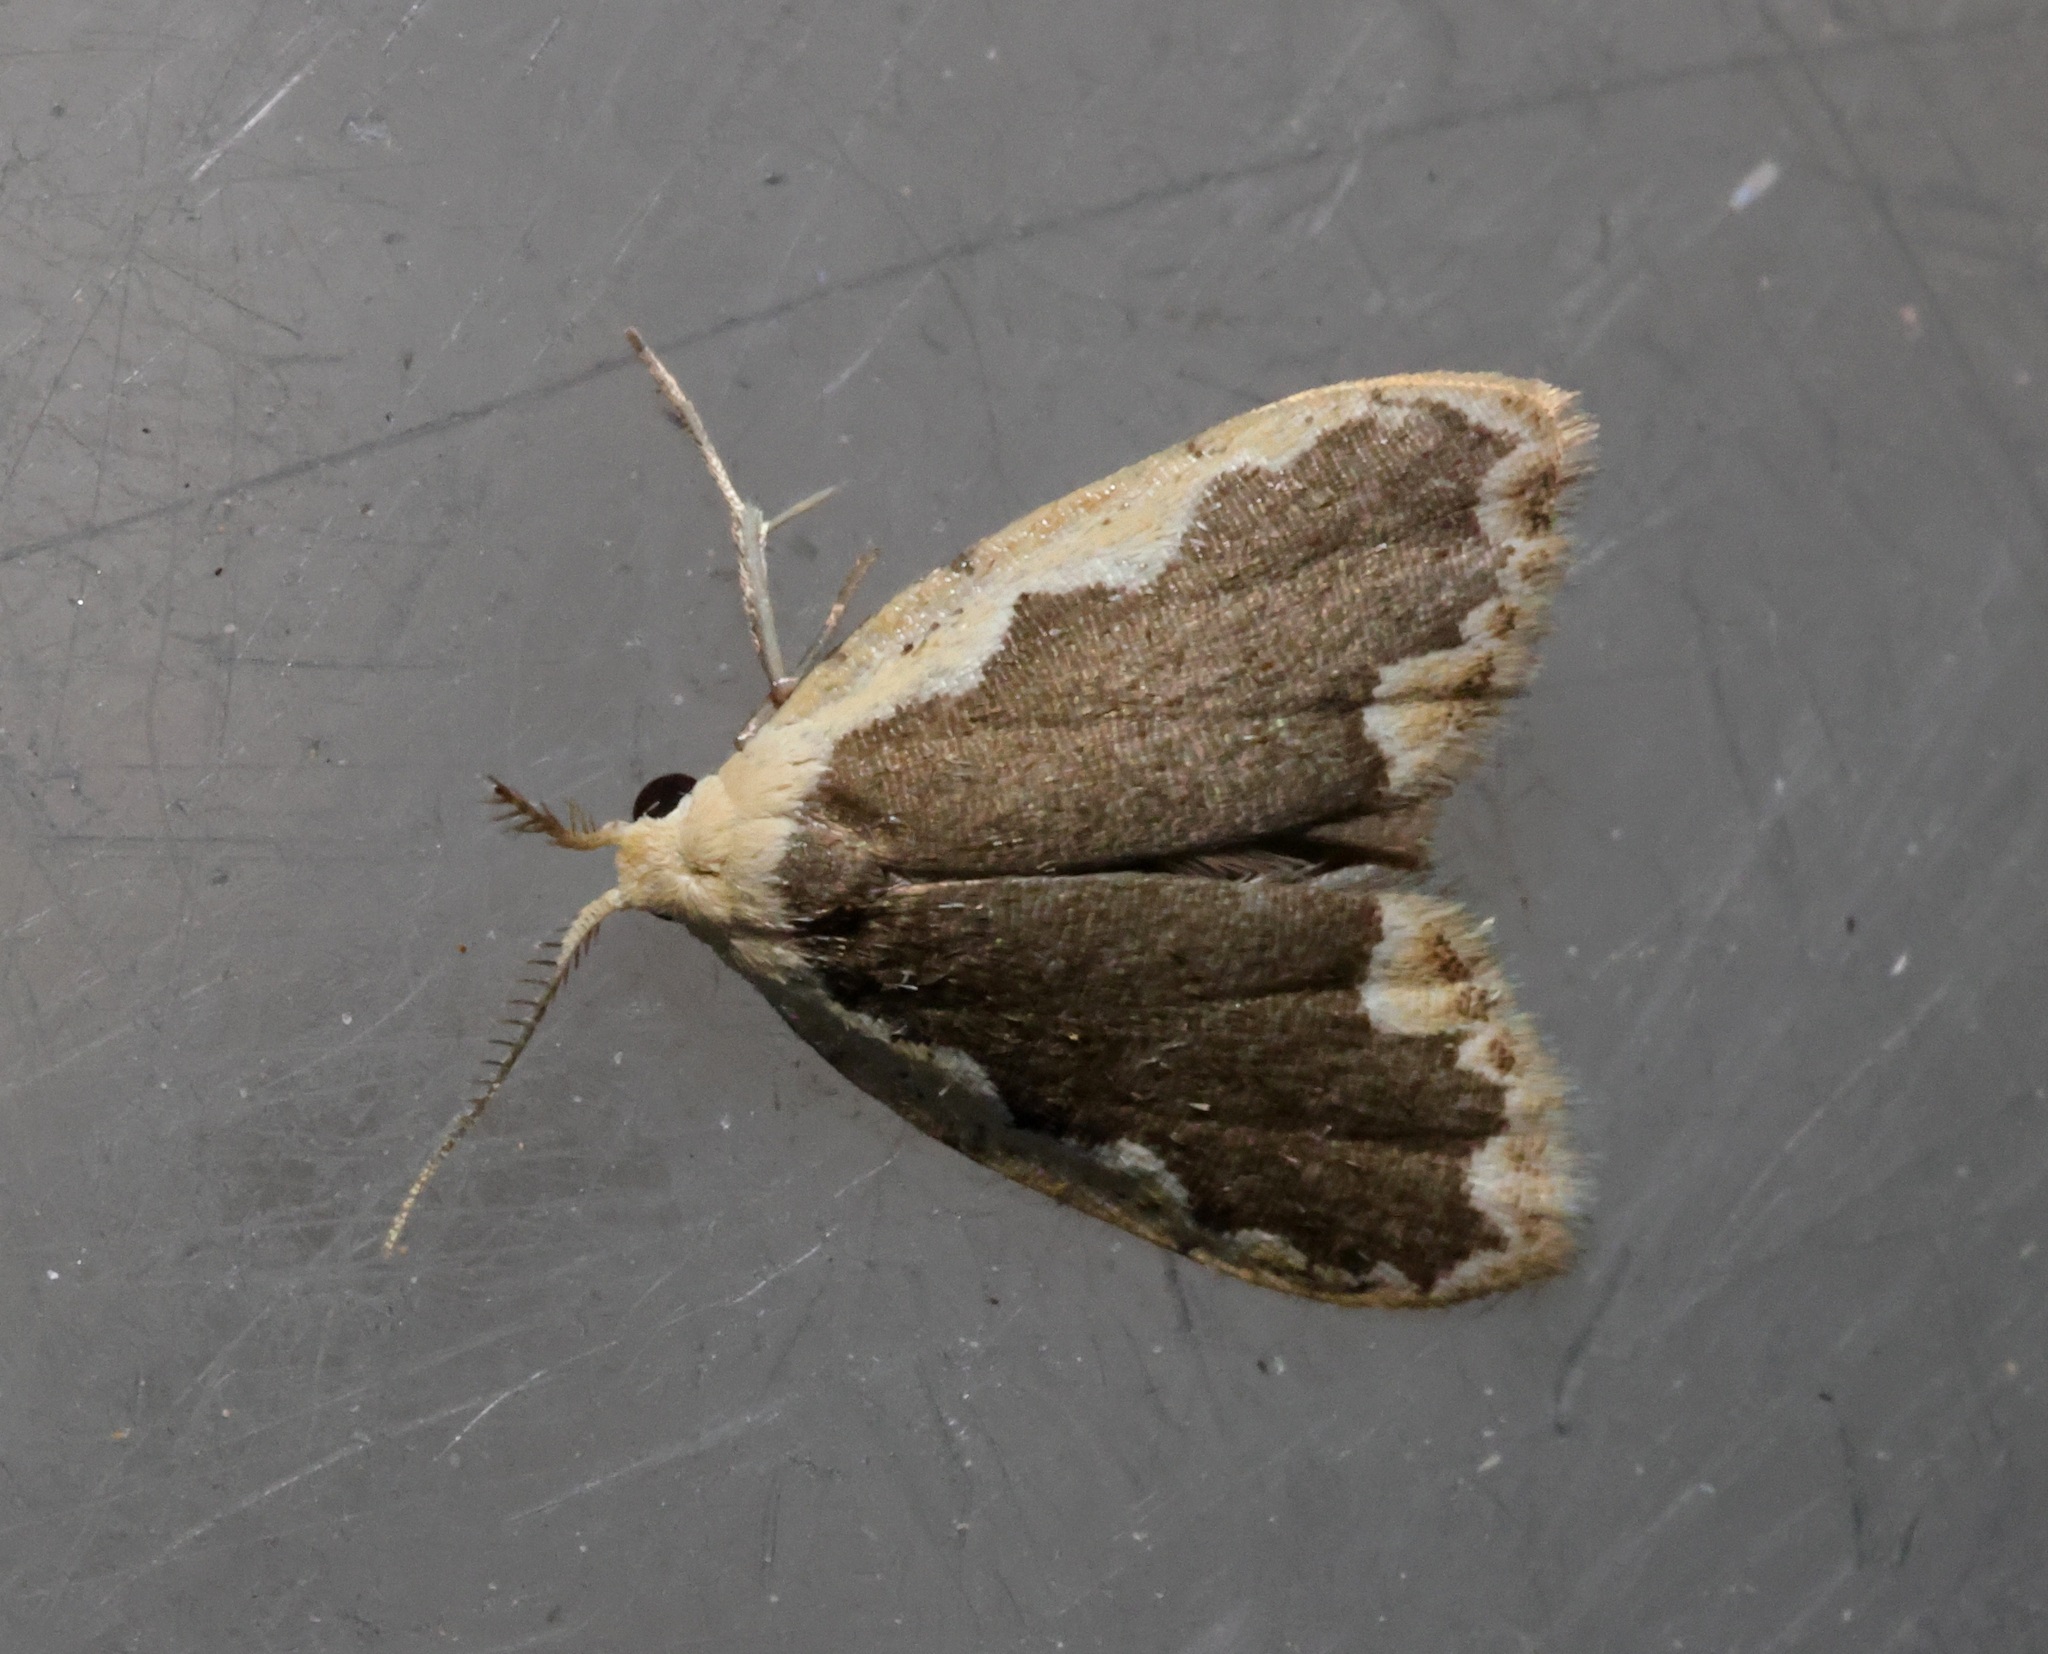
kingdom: Animalia
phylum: Arthropoda
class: Insecta
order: Lepidoptera
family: Erebidae
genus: Diduga
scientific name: Diduga flavicostata
